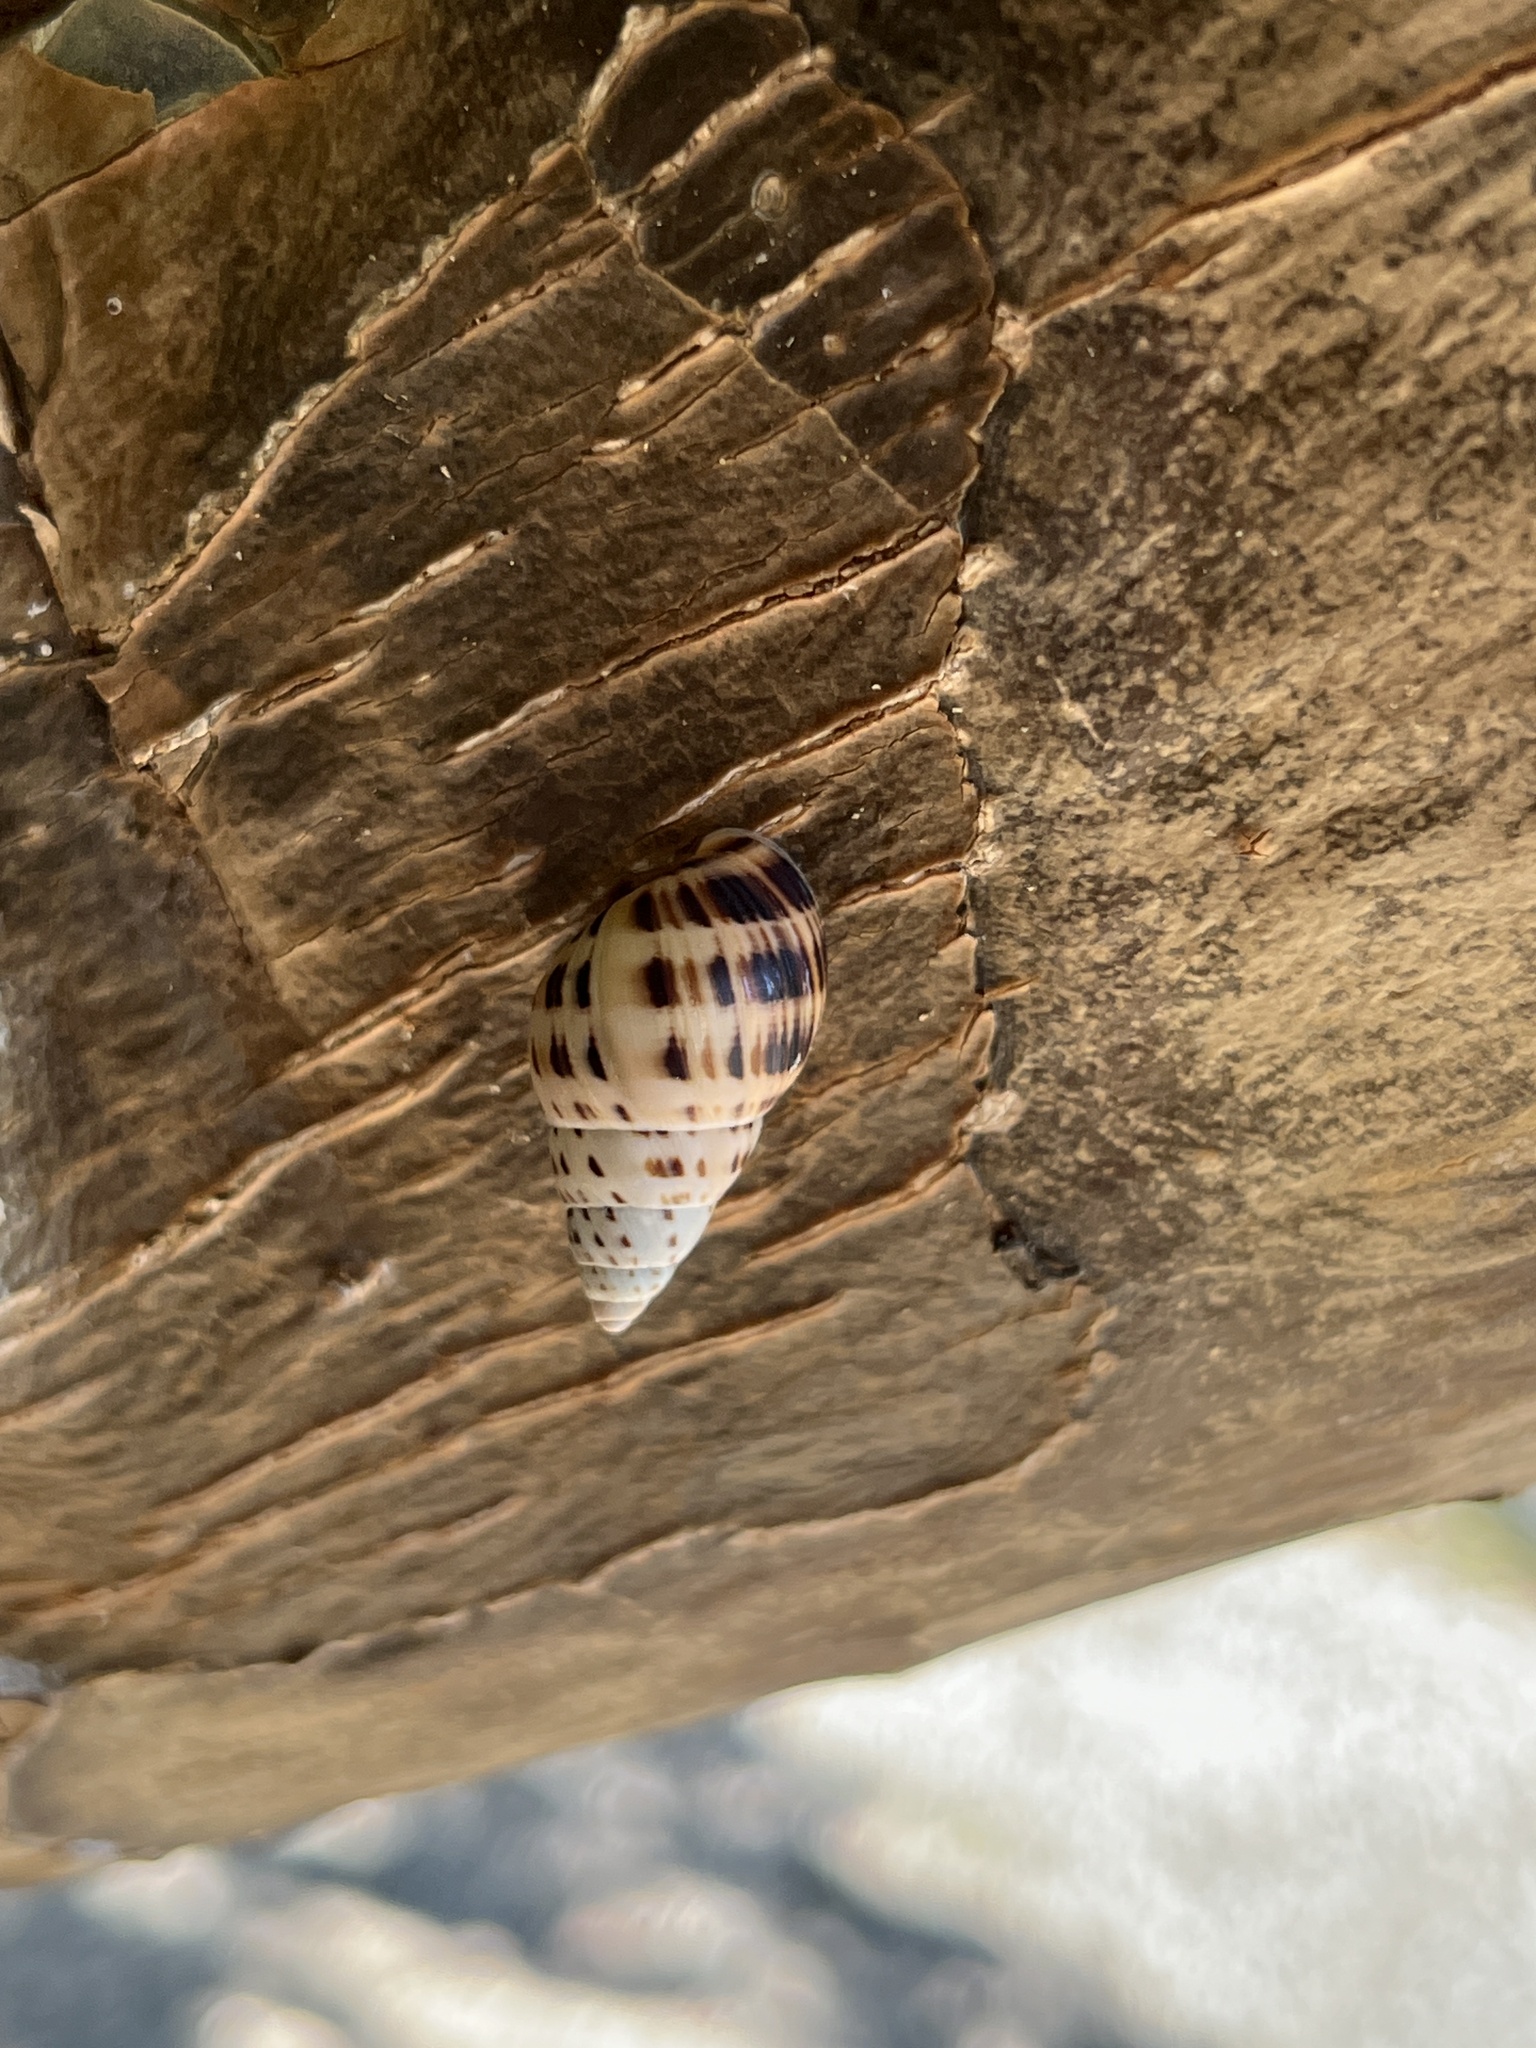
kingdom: Animalia
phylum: Mollusca
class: Gastropoda
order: Stylommatophora
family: Bulimulidae
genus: Drymaeus
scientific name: Drymaeus elongatus
